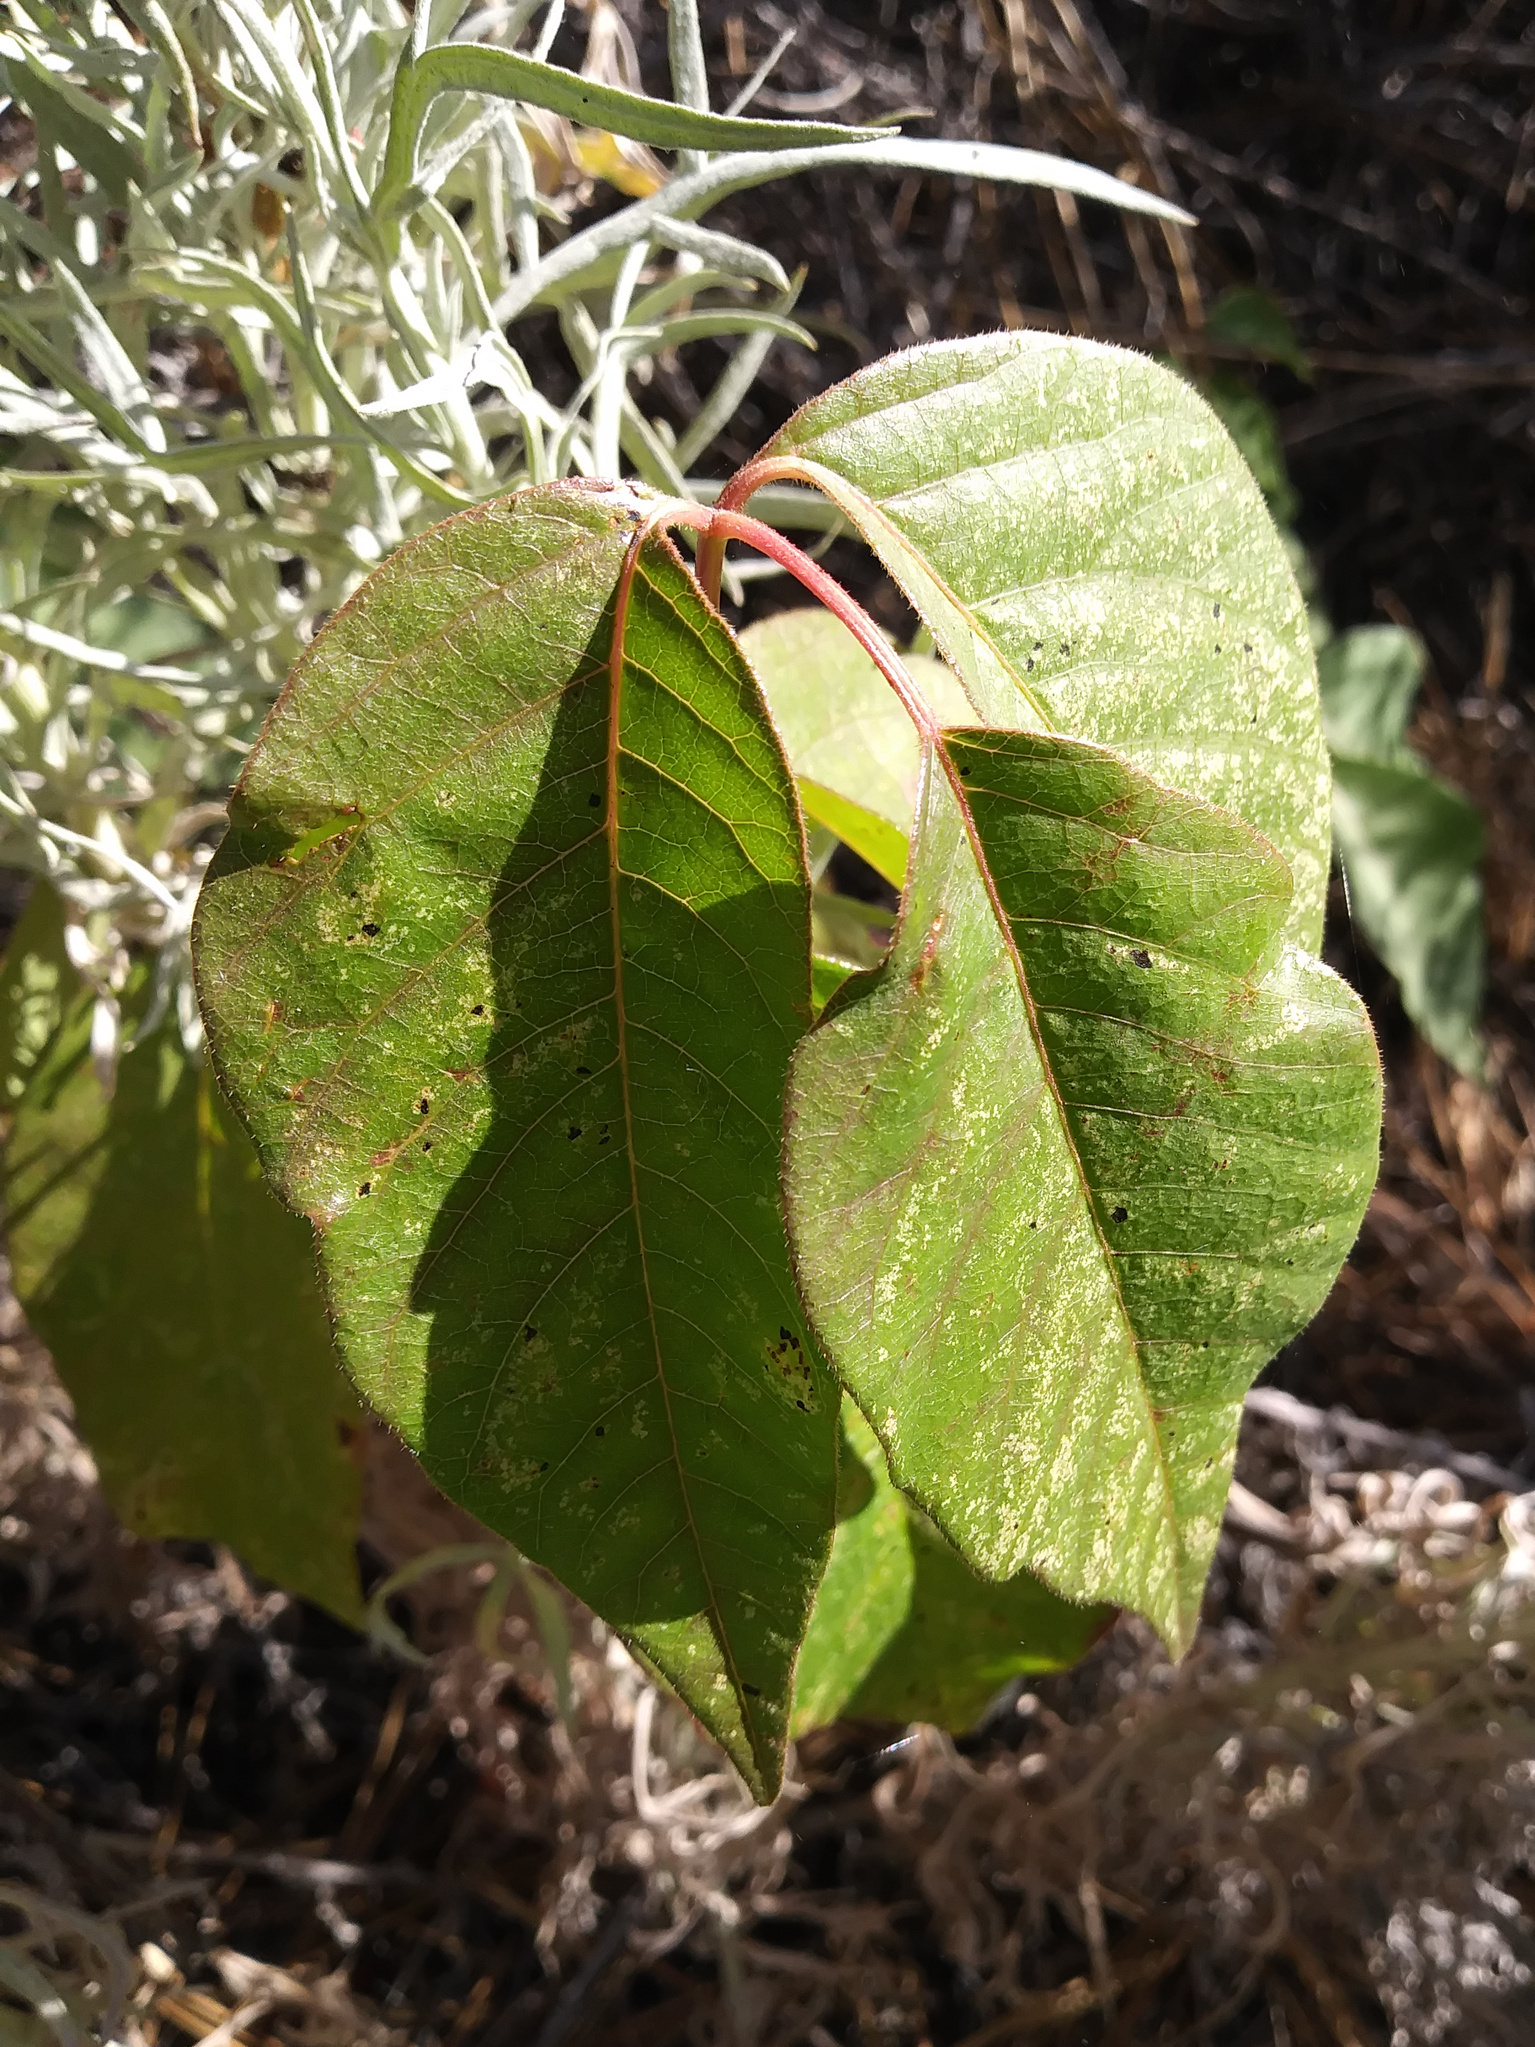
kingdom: Plantae
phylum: Tracheophyta
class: Magnoliopsida
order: Sapindales
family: Anacardiaceae
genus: Toxicodendron
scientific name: Toxicodendron rydbergii
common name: Rydberg's poison-ivy
